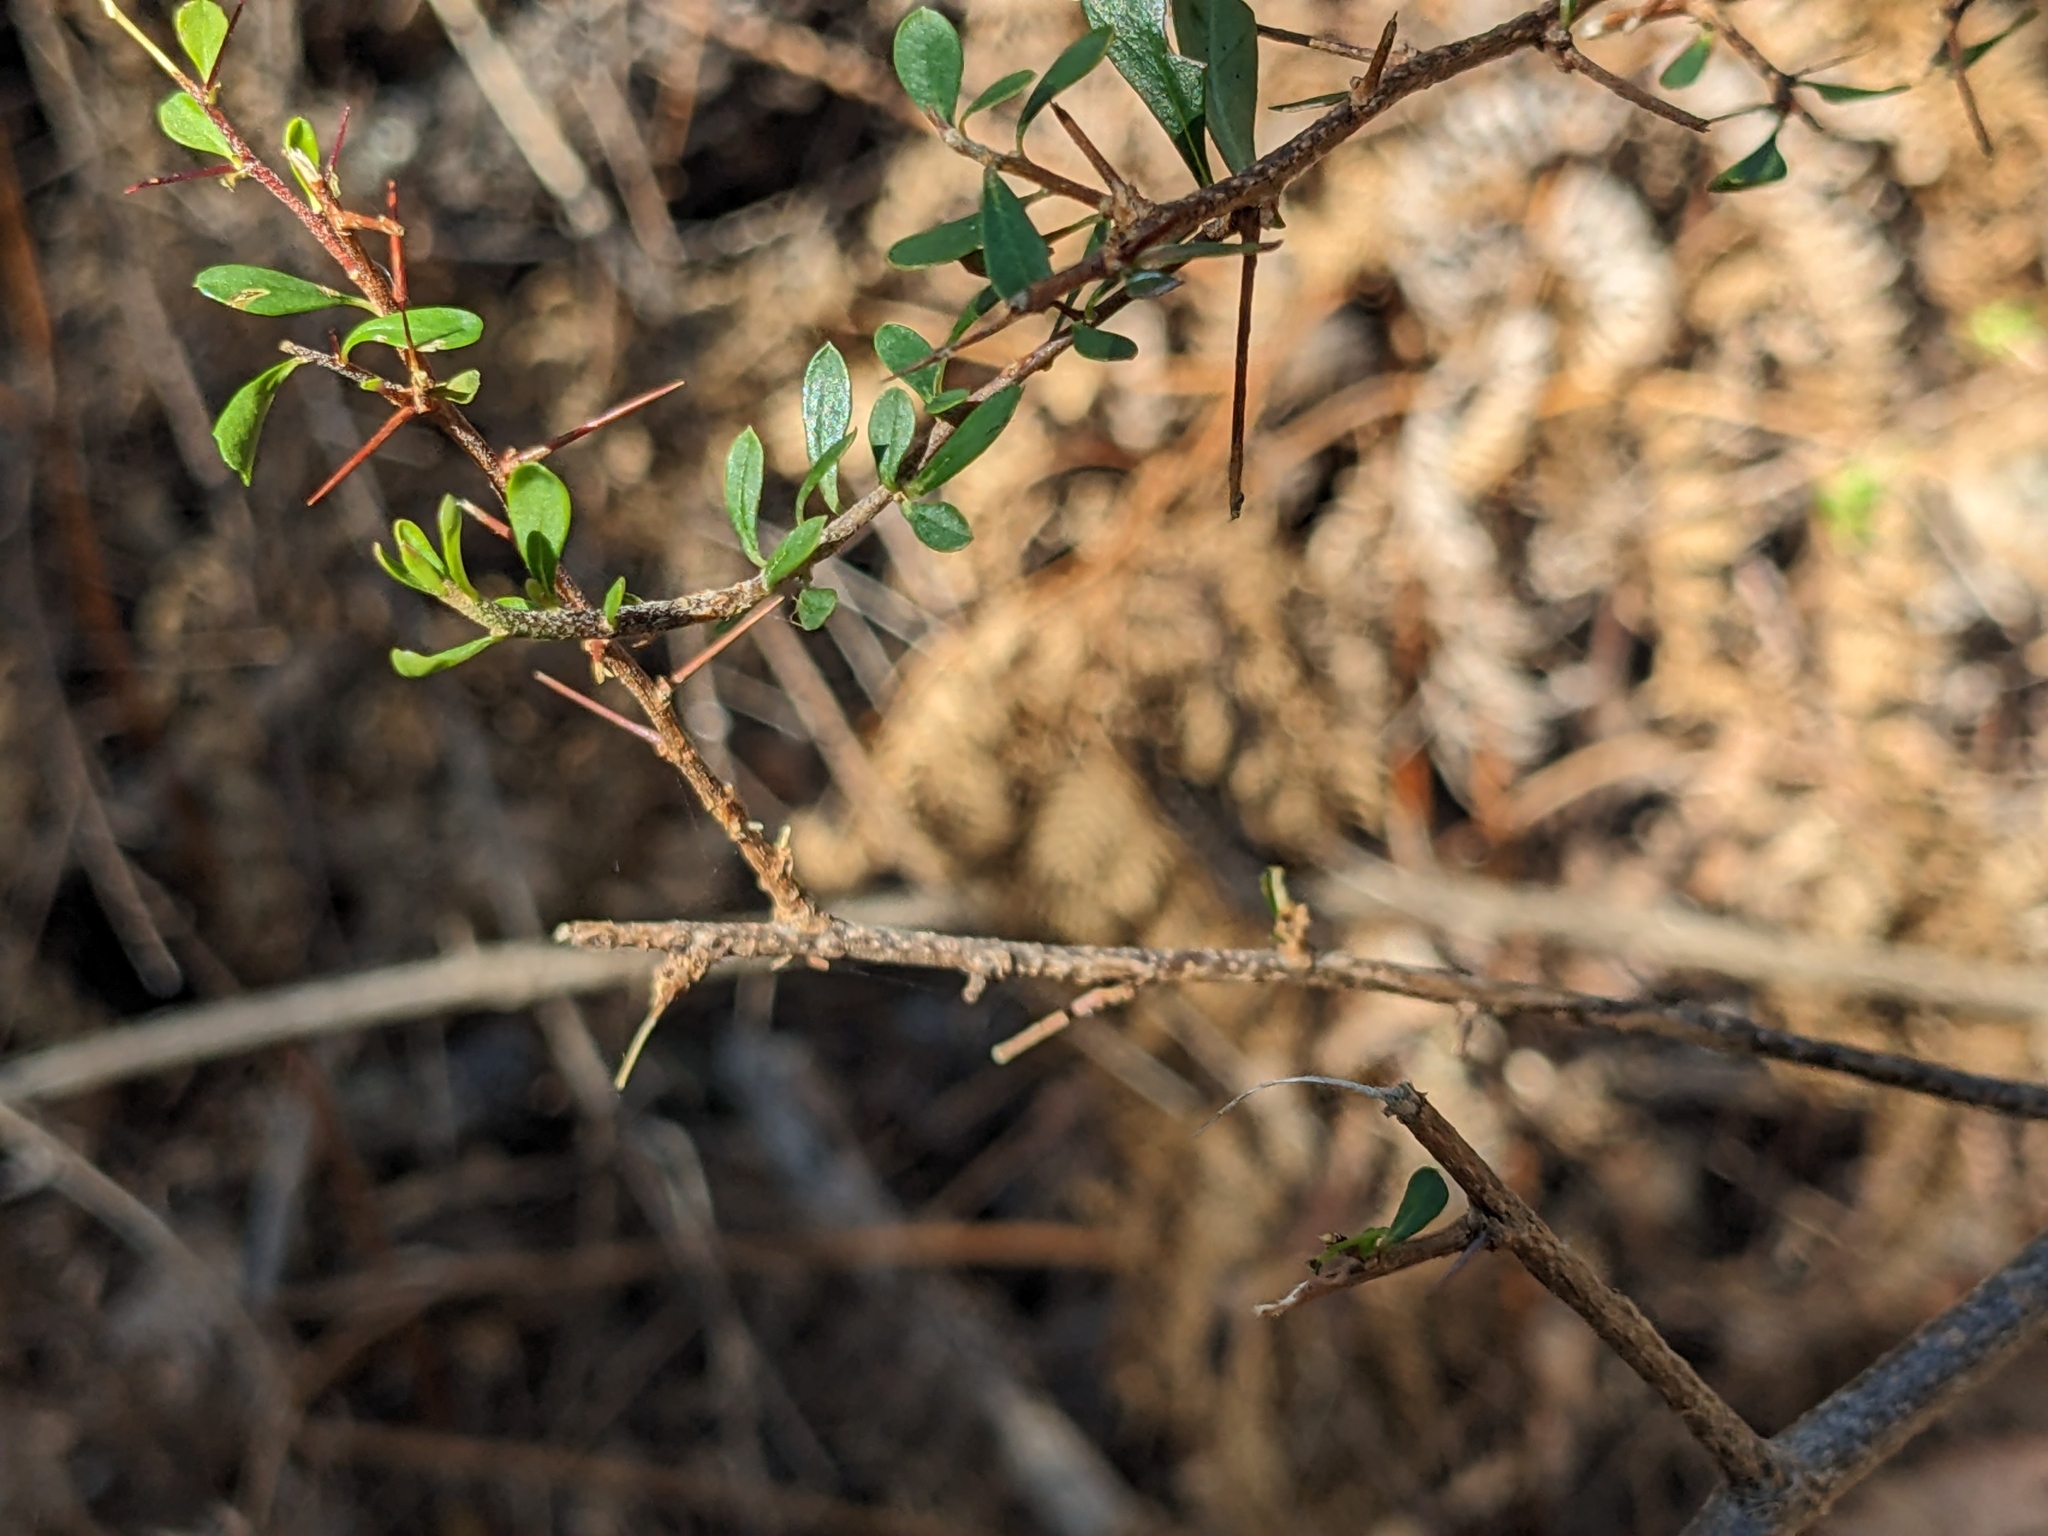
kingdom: Plantae
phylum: Tracheophyta
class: Magnoliopsida
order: Apiales
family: Pittosporaceae
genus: Bursaria
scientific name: Bursaria spinosa
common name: Australian blackthorn
